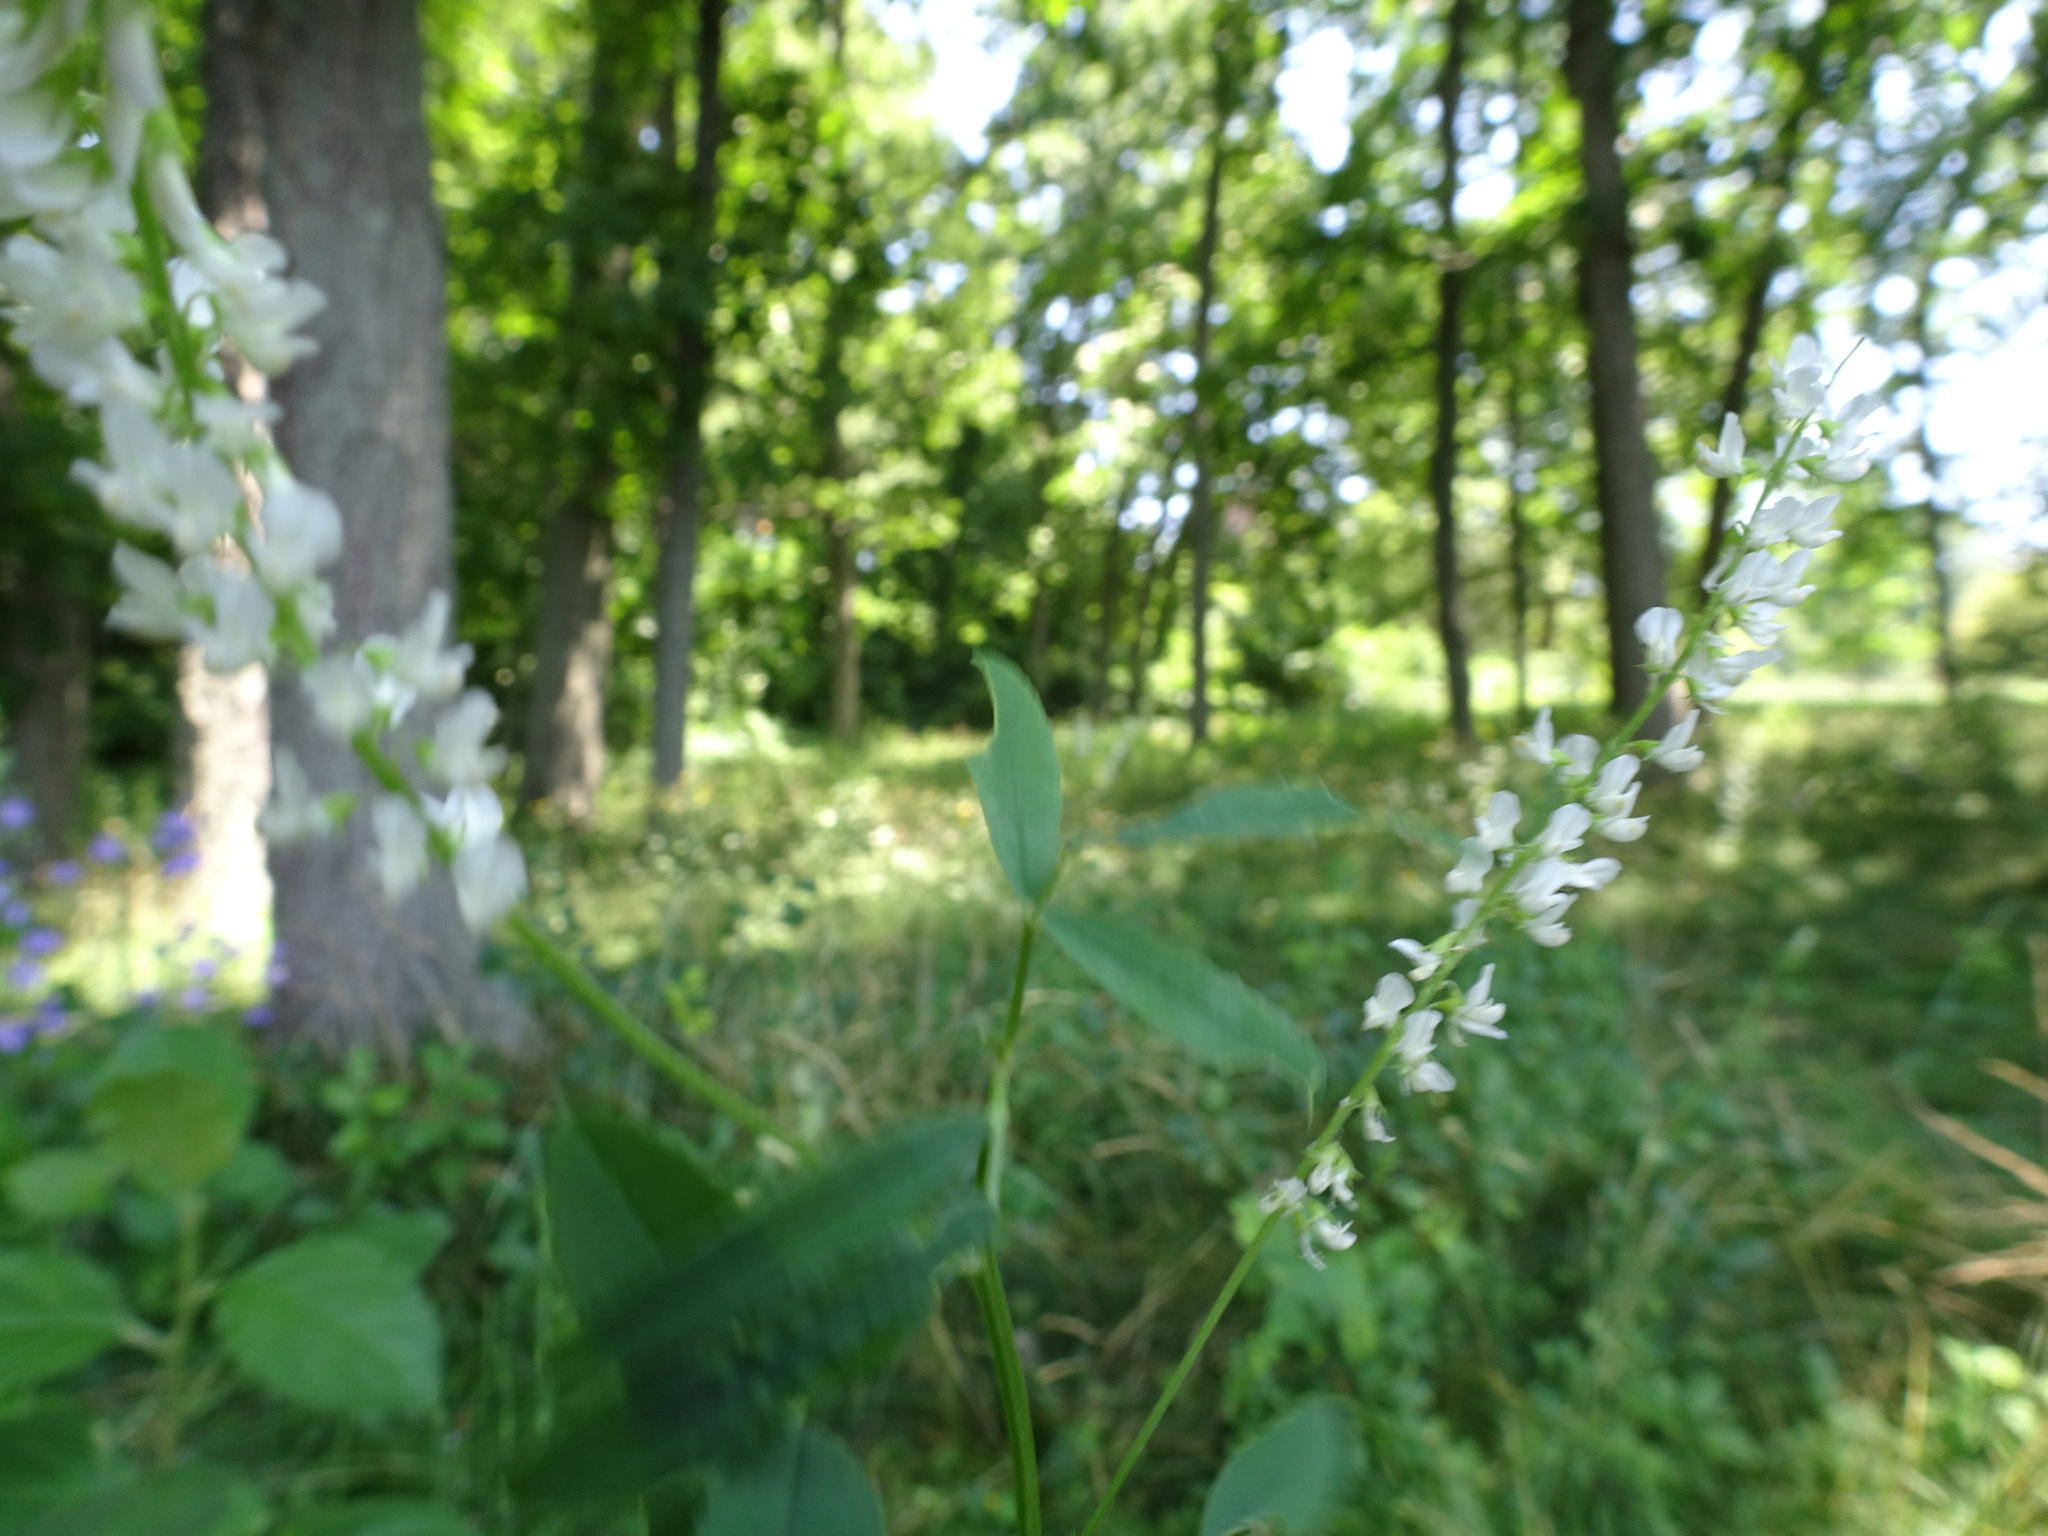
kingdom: Plantae
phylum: Tracheophyta
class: Magnoliopsida
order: Fabales
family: Fabaceae
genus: Melilotus
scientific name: Melilotus albus
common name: White melilot
